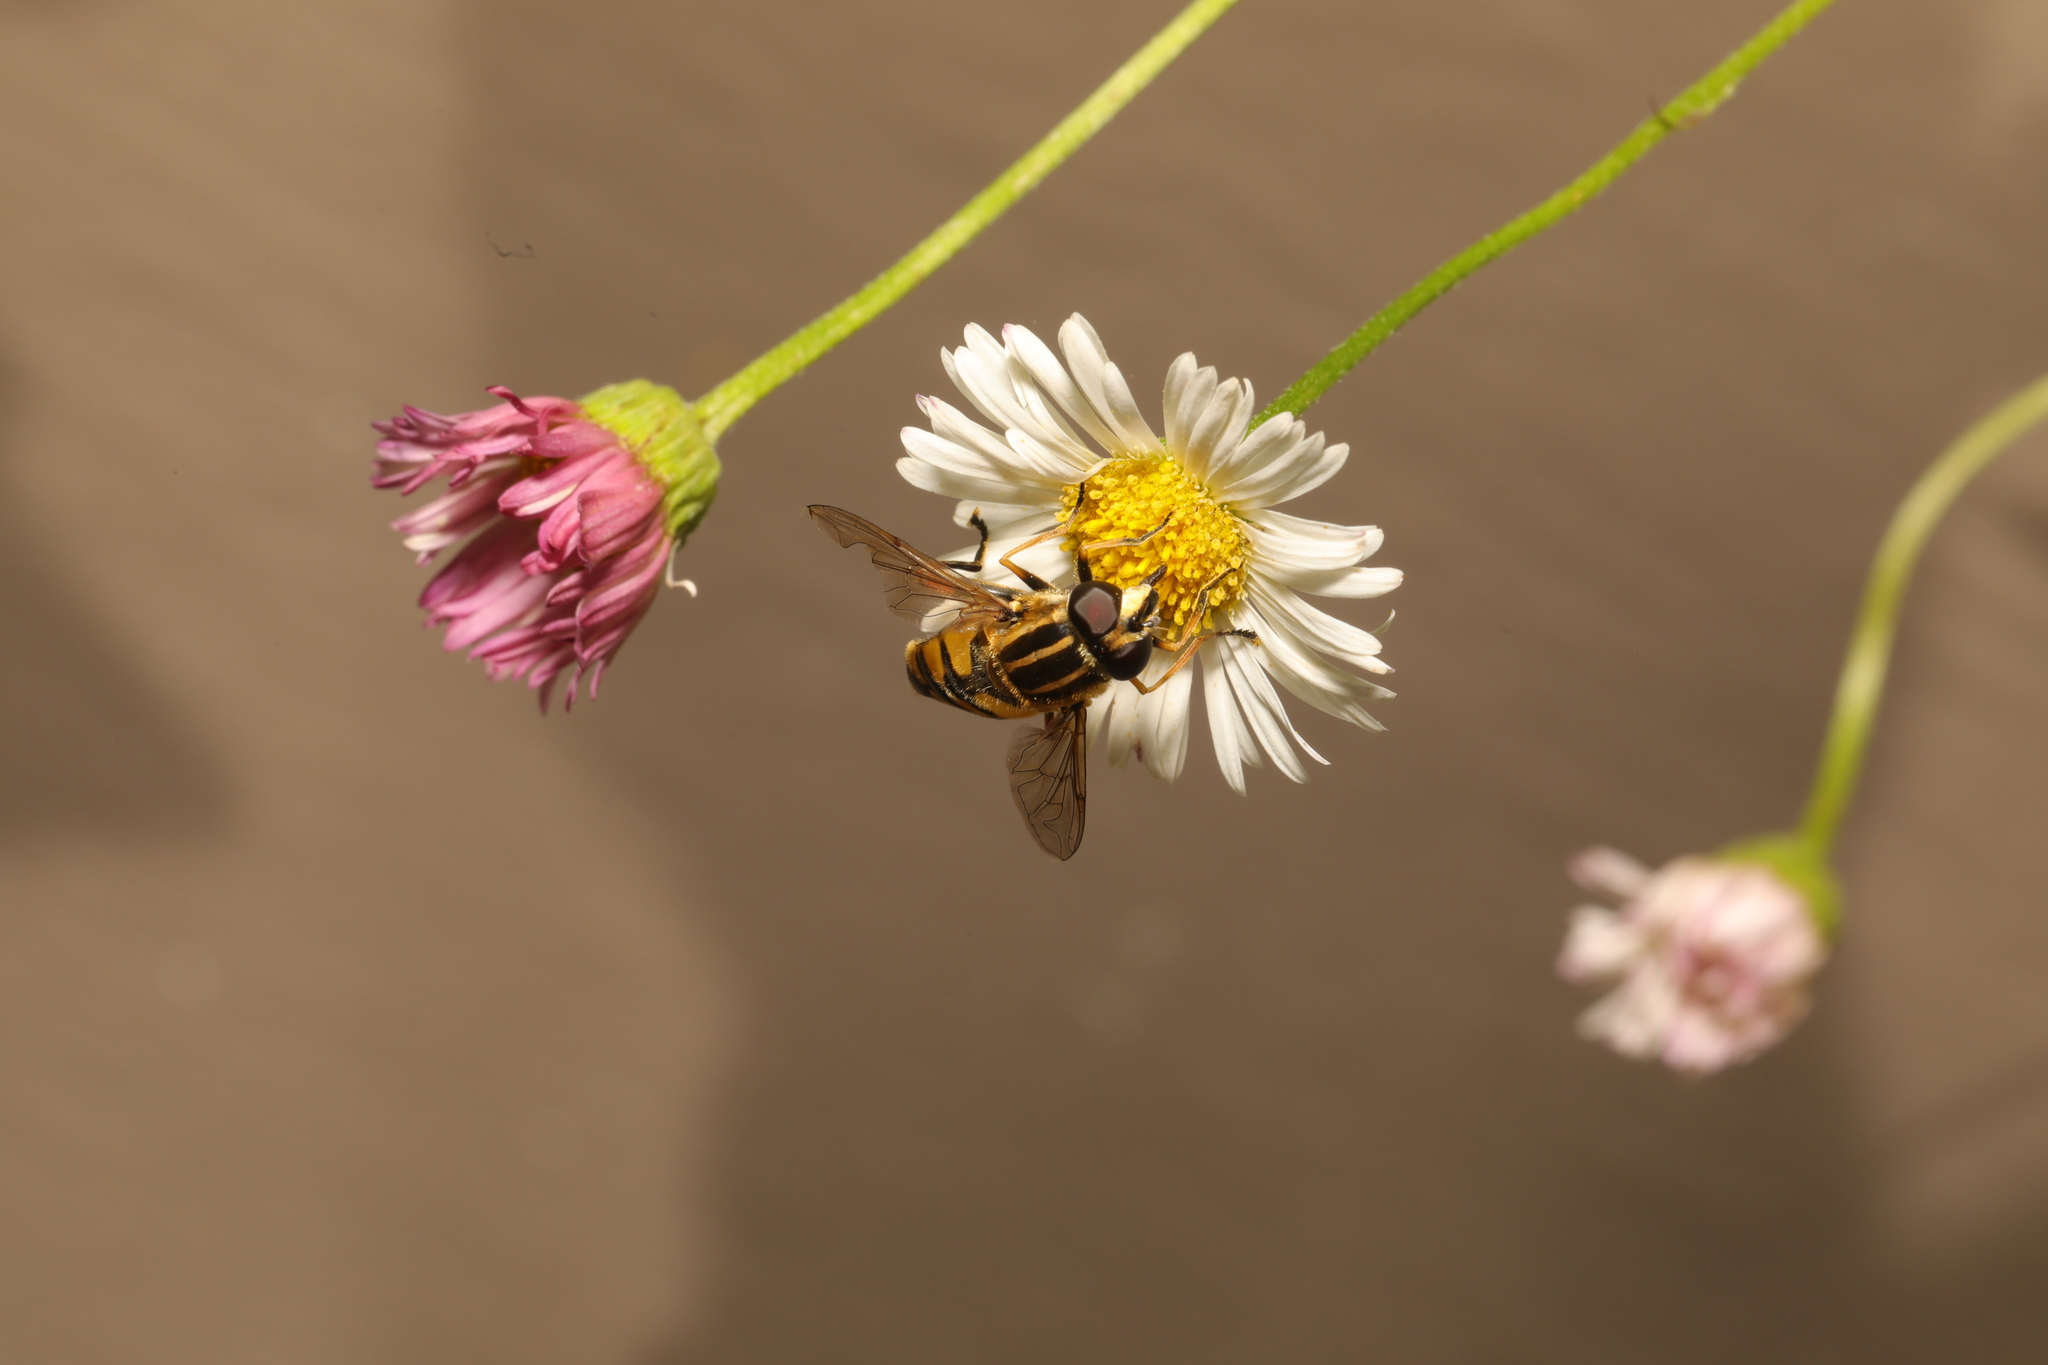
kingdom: Animalia
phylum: Arthropoda
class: Insecta
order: Diptera
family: Syrphidae
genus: Helophilus
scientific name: Helophilus pendulus
